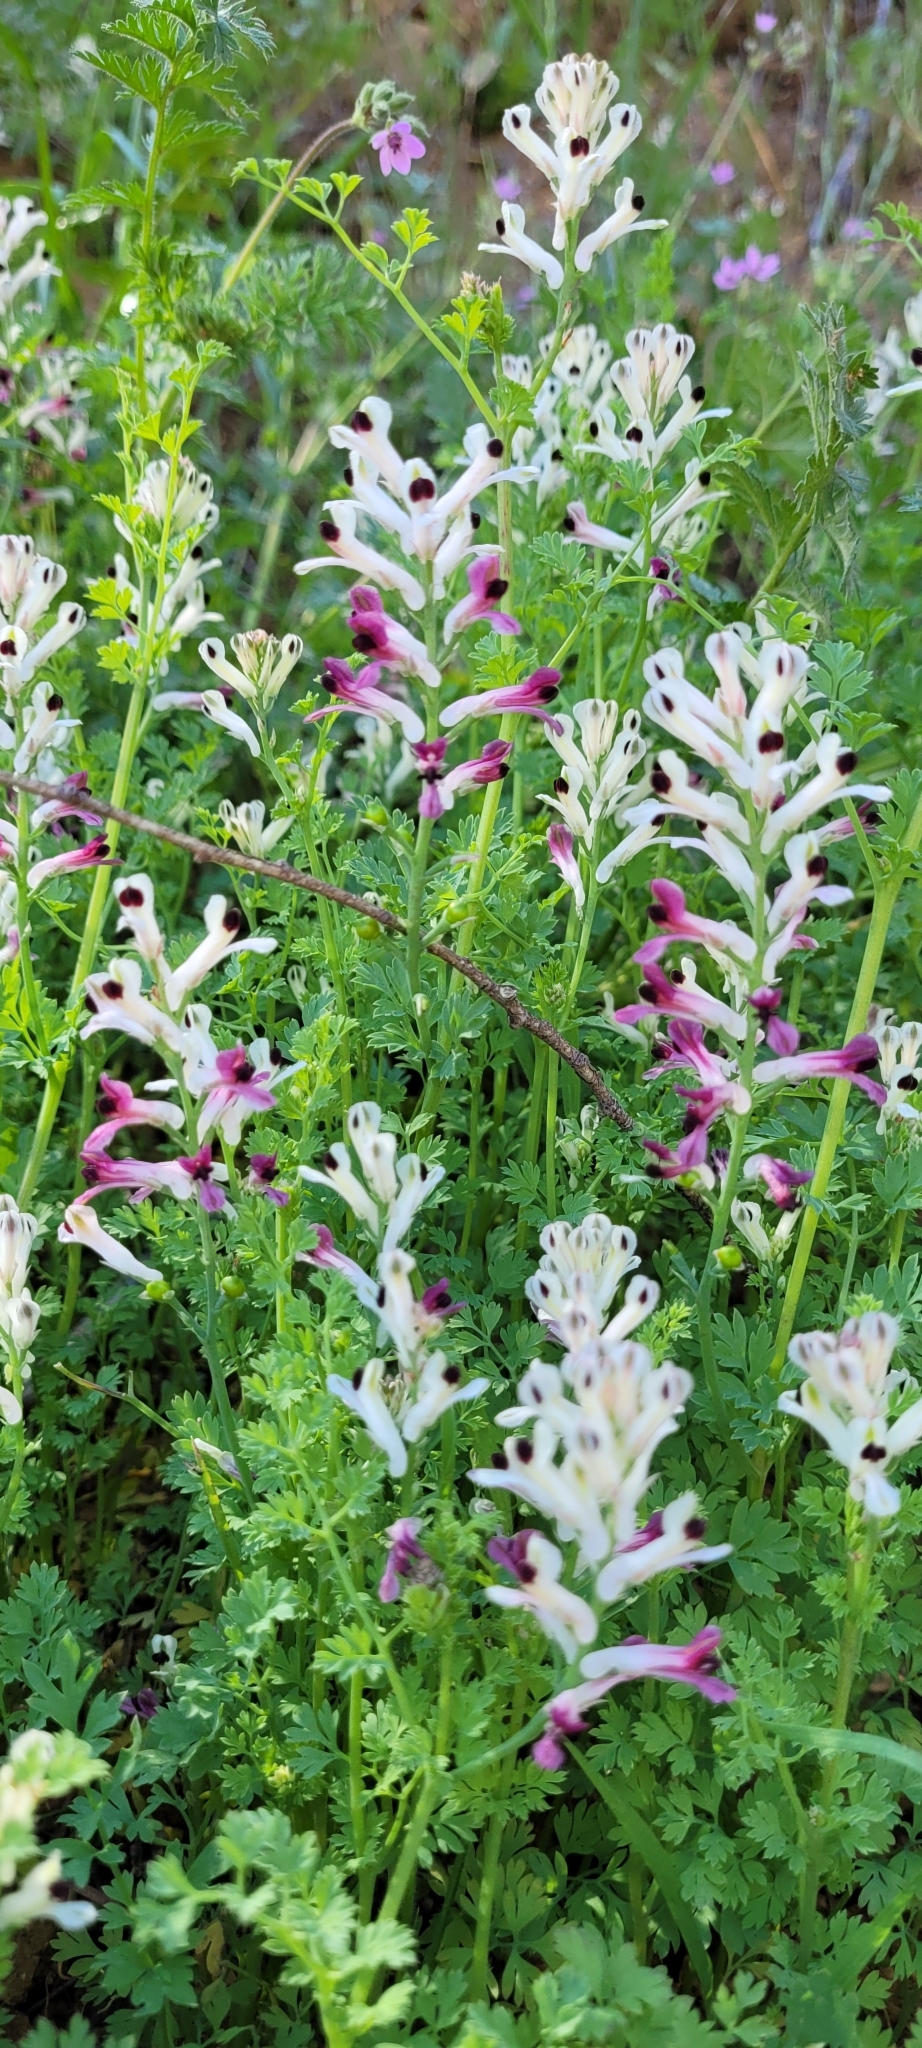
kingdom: Plantae
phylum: Tracheophyta
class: Magnoliopsida
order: Ranunculales
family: Papaveraceae
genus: Fumaria
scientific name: Fumaria agraria
